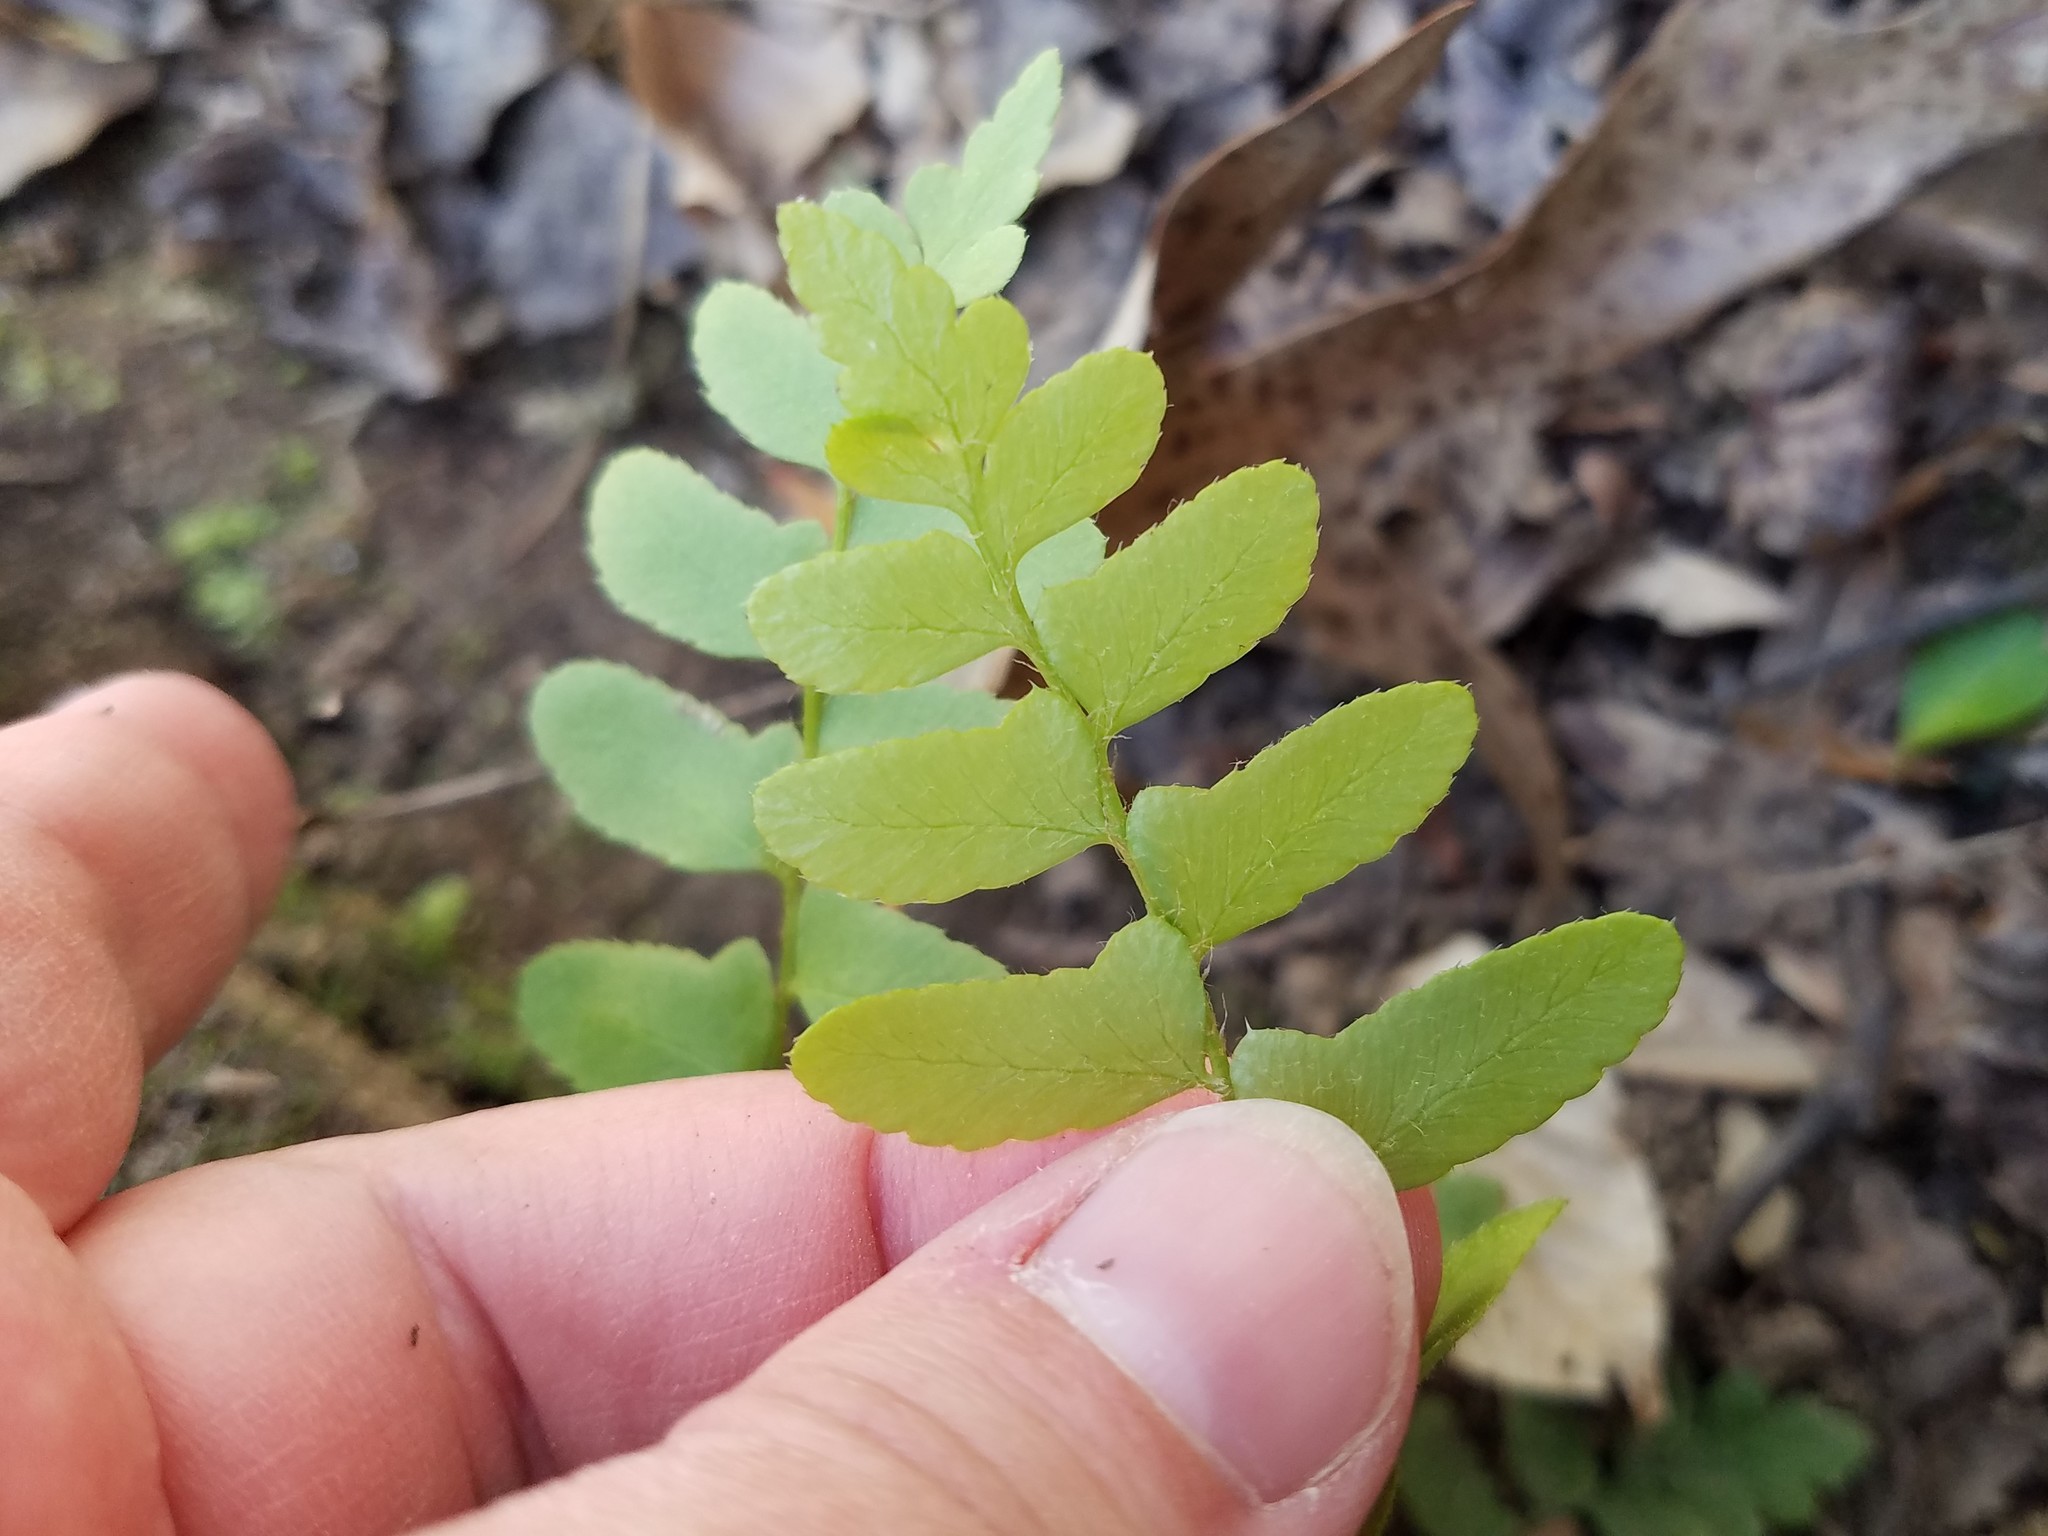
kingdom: Plantae
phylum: Tracheophyta
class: Polypodiopsida
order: Polypodiales
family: Dryopteridaceae
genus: Polystichum
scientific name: Polystichum acrostichoides
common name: Christmas fern
